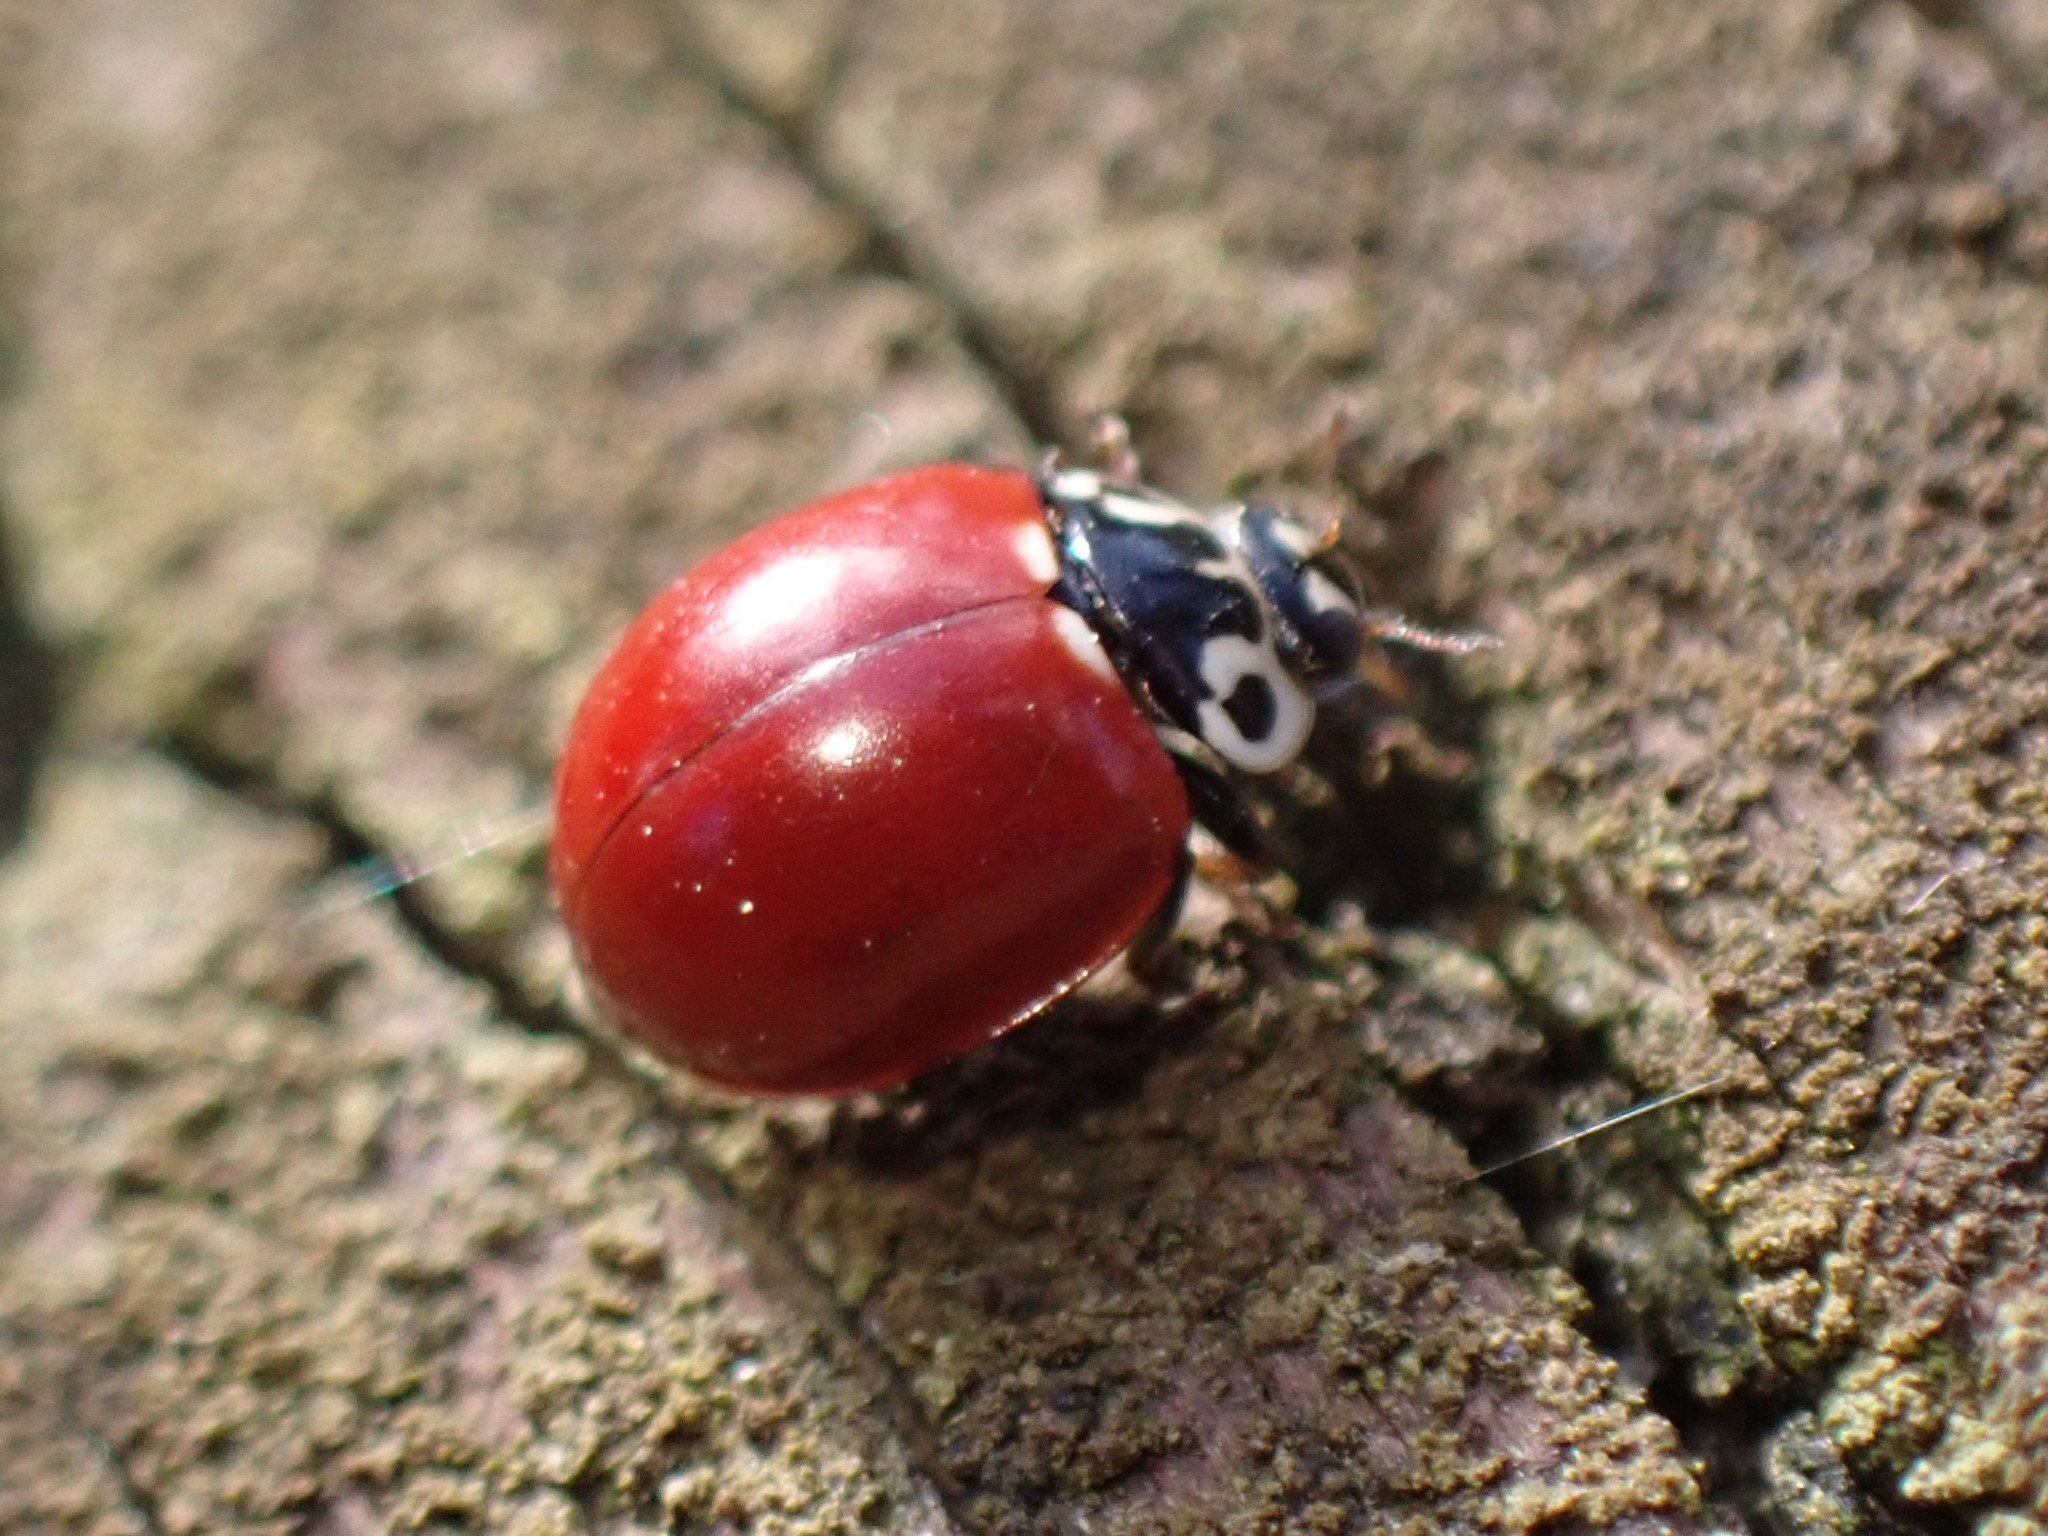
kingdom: Animalia
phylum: Arthropoda
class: Insecta
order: Coleoptera
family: Coccinellidae
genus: Cycloneda
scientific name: Cycloneda polita
